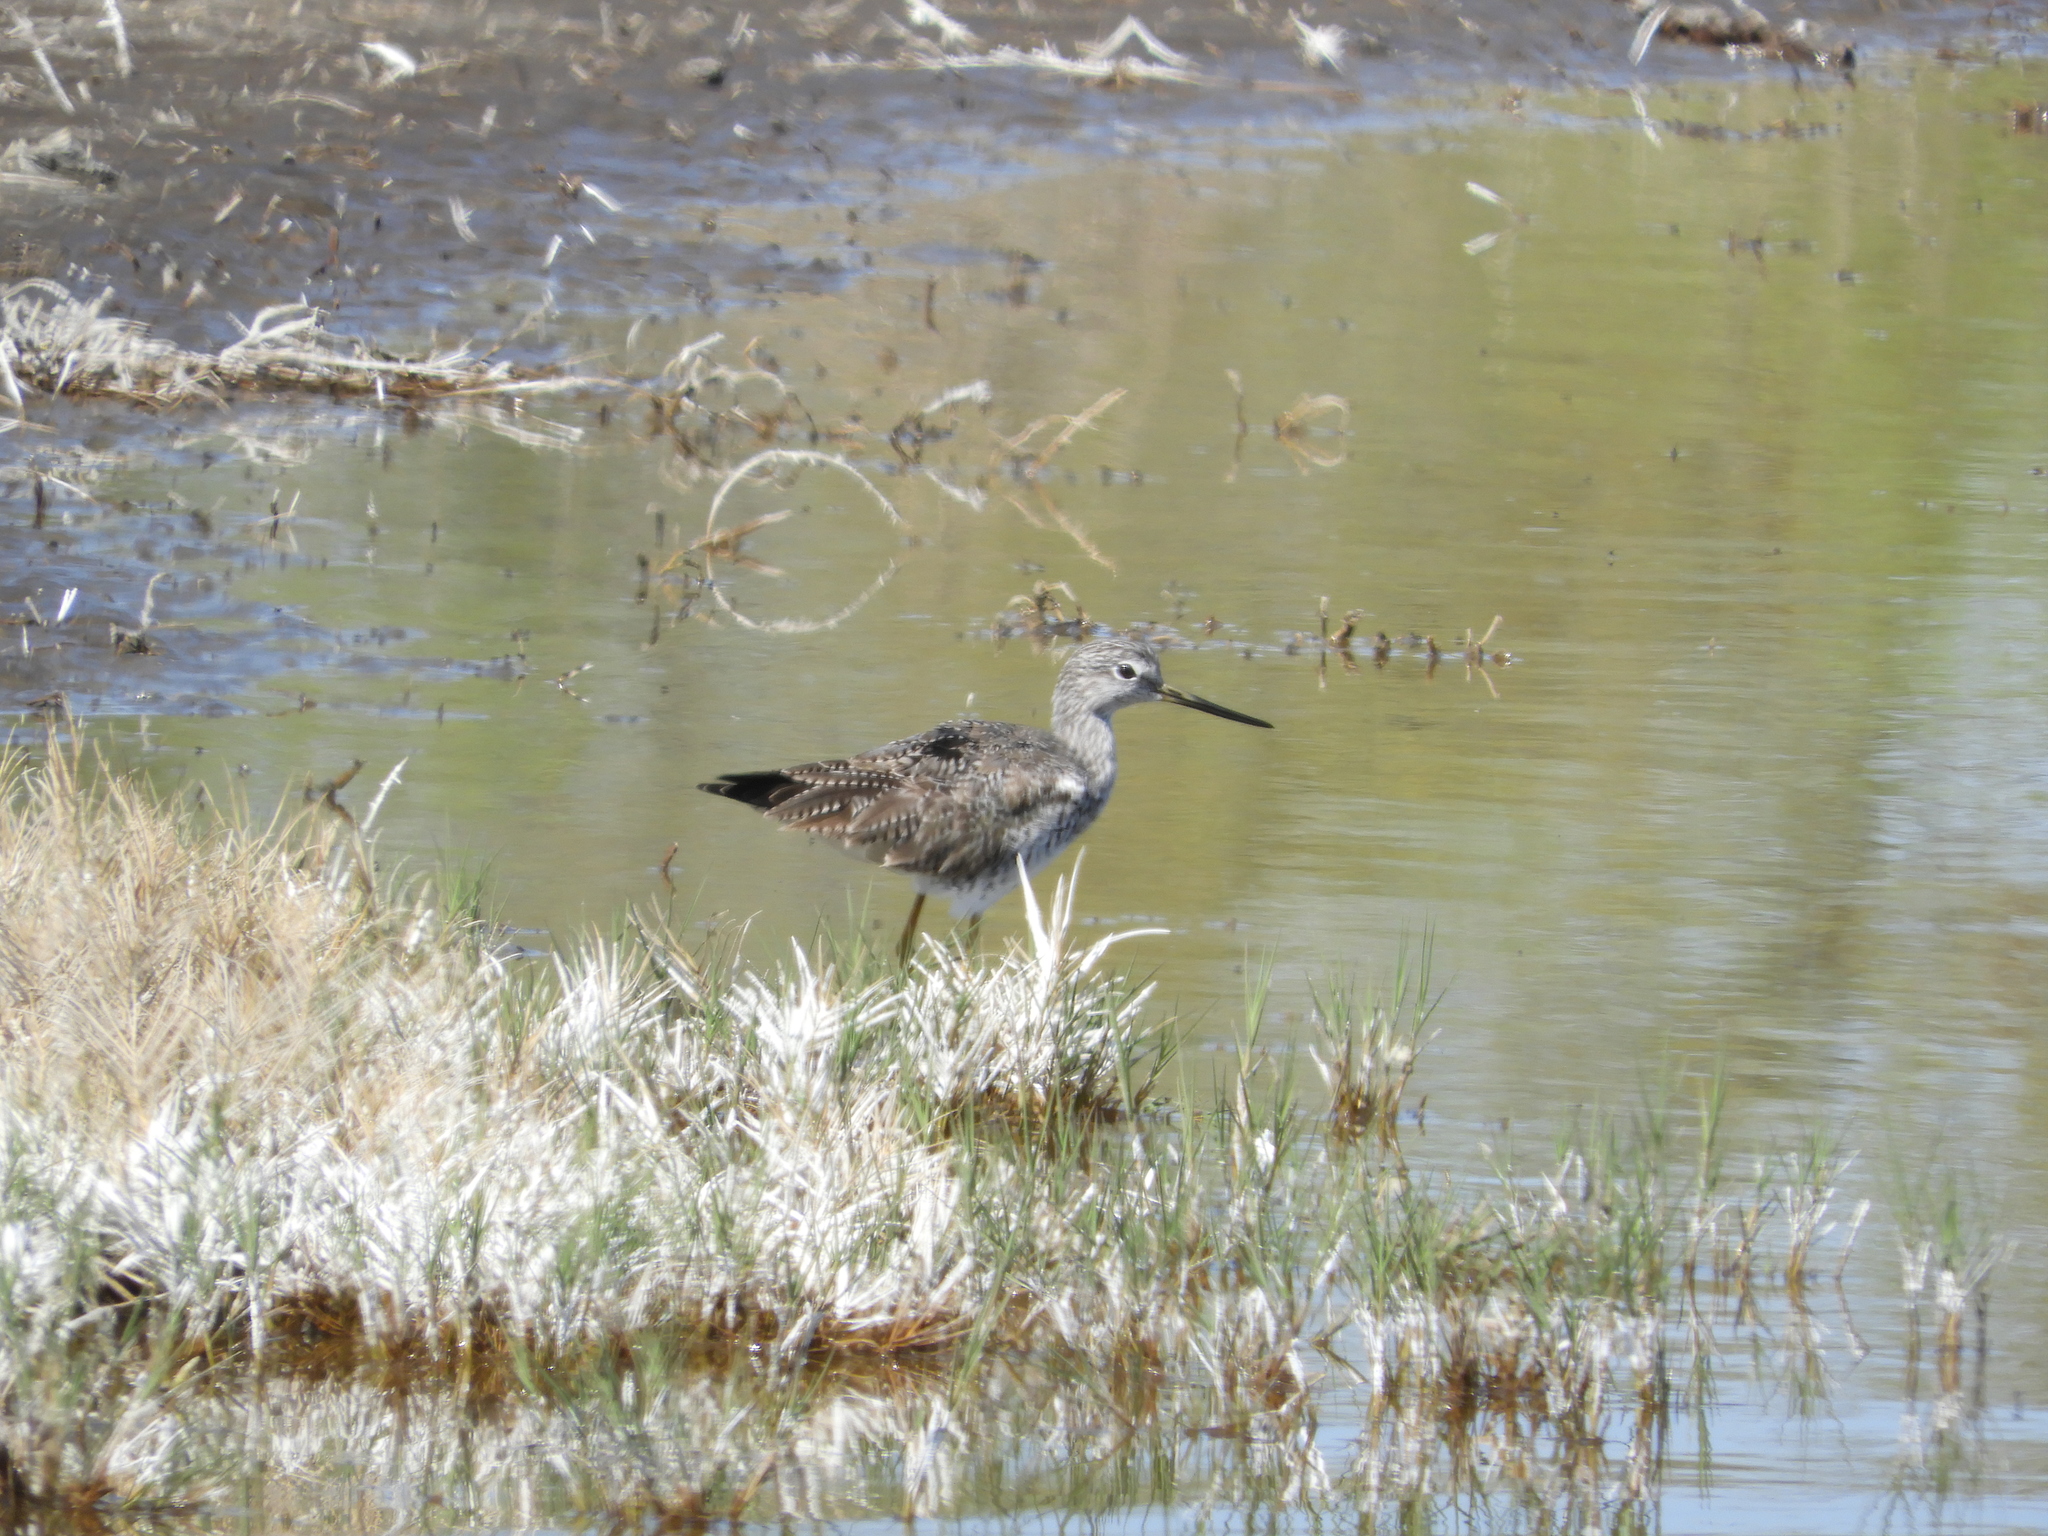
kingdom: Animalia
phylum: Chordata
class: Aves
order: Charadriiformes
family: Scolopacidae
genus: Tringa
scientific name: Tringa melanoleuca
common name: Greater yellowlegs
